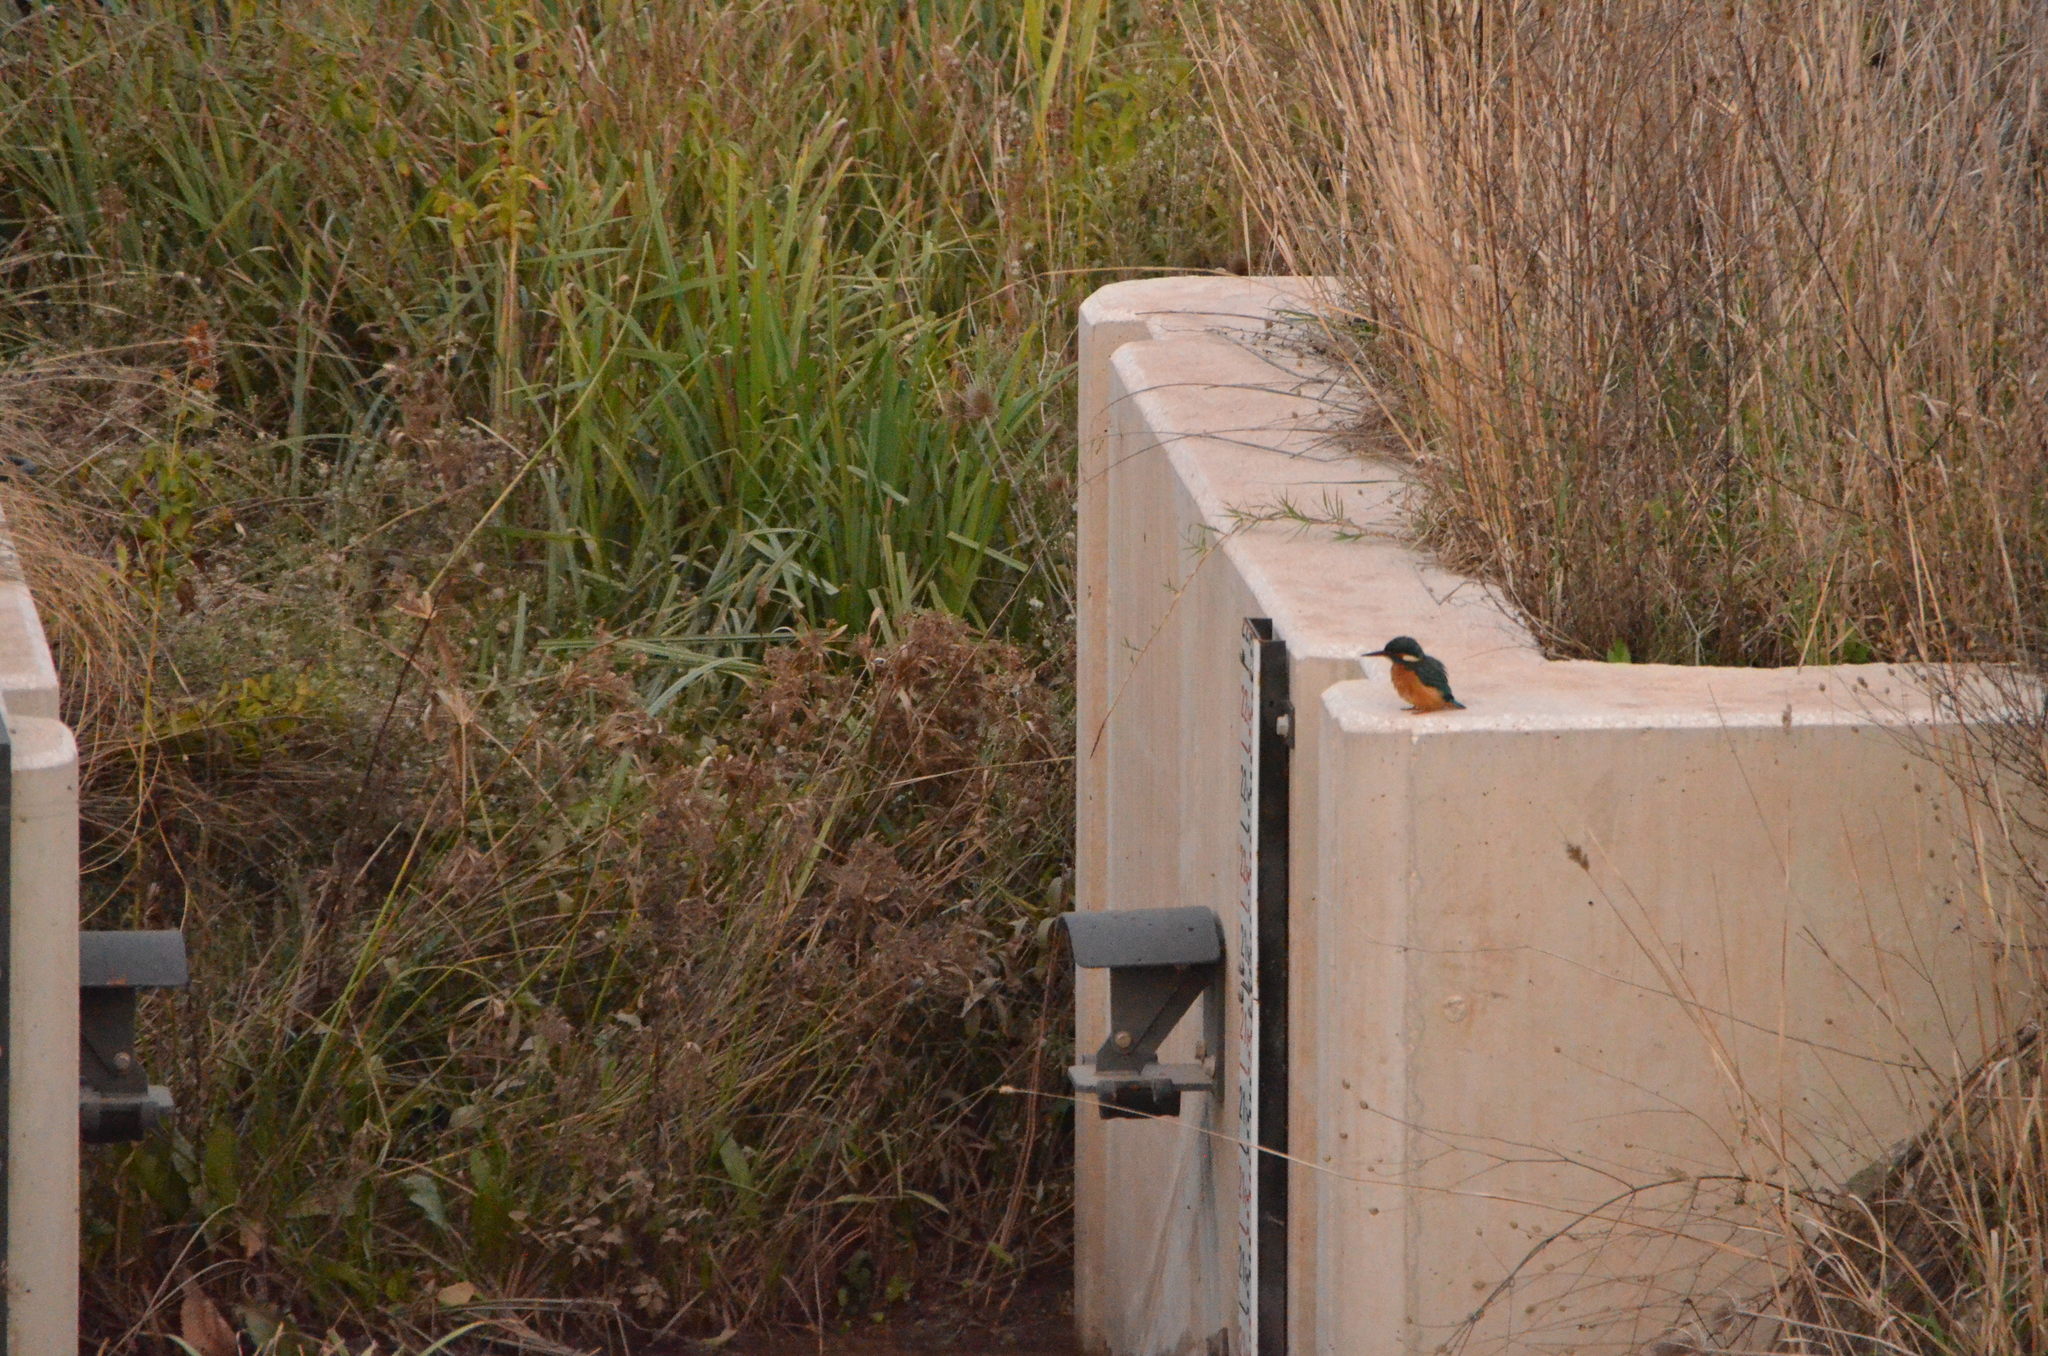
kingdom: Animalia
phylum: Chordata
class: Aves
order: Coraciiformes
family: Alcedinidae
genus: Alcedo
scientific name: Alcedo atthis
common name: Common kingfisher
